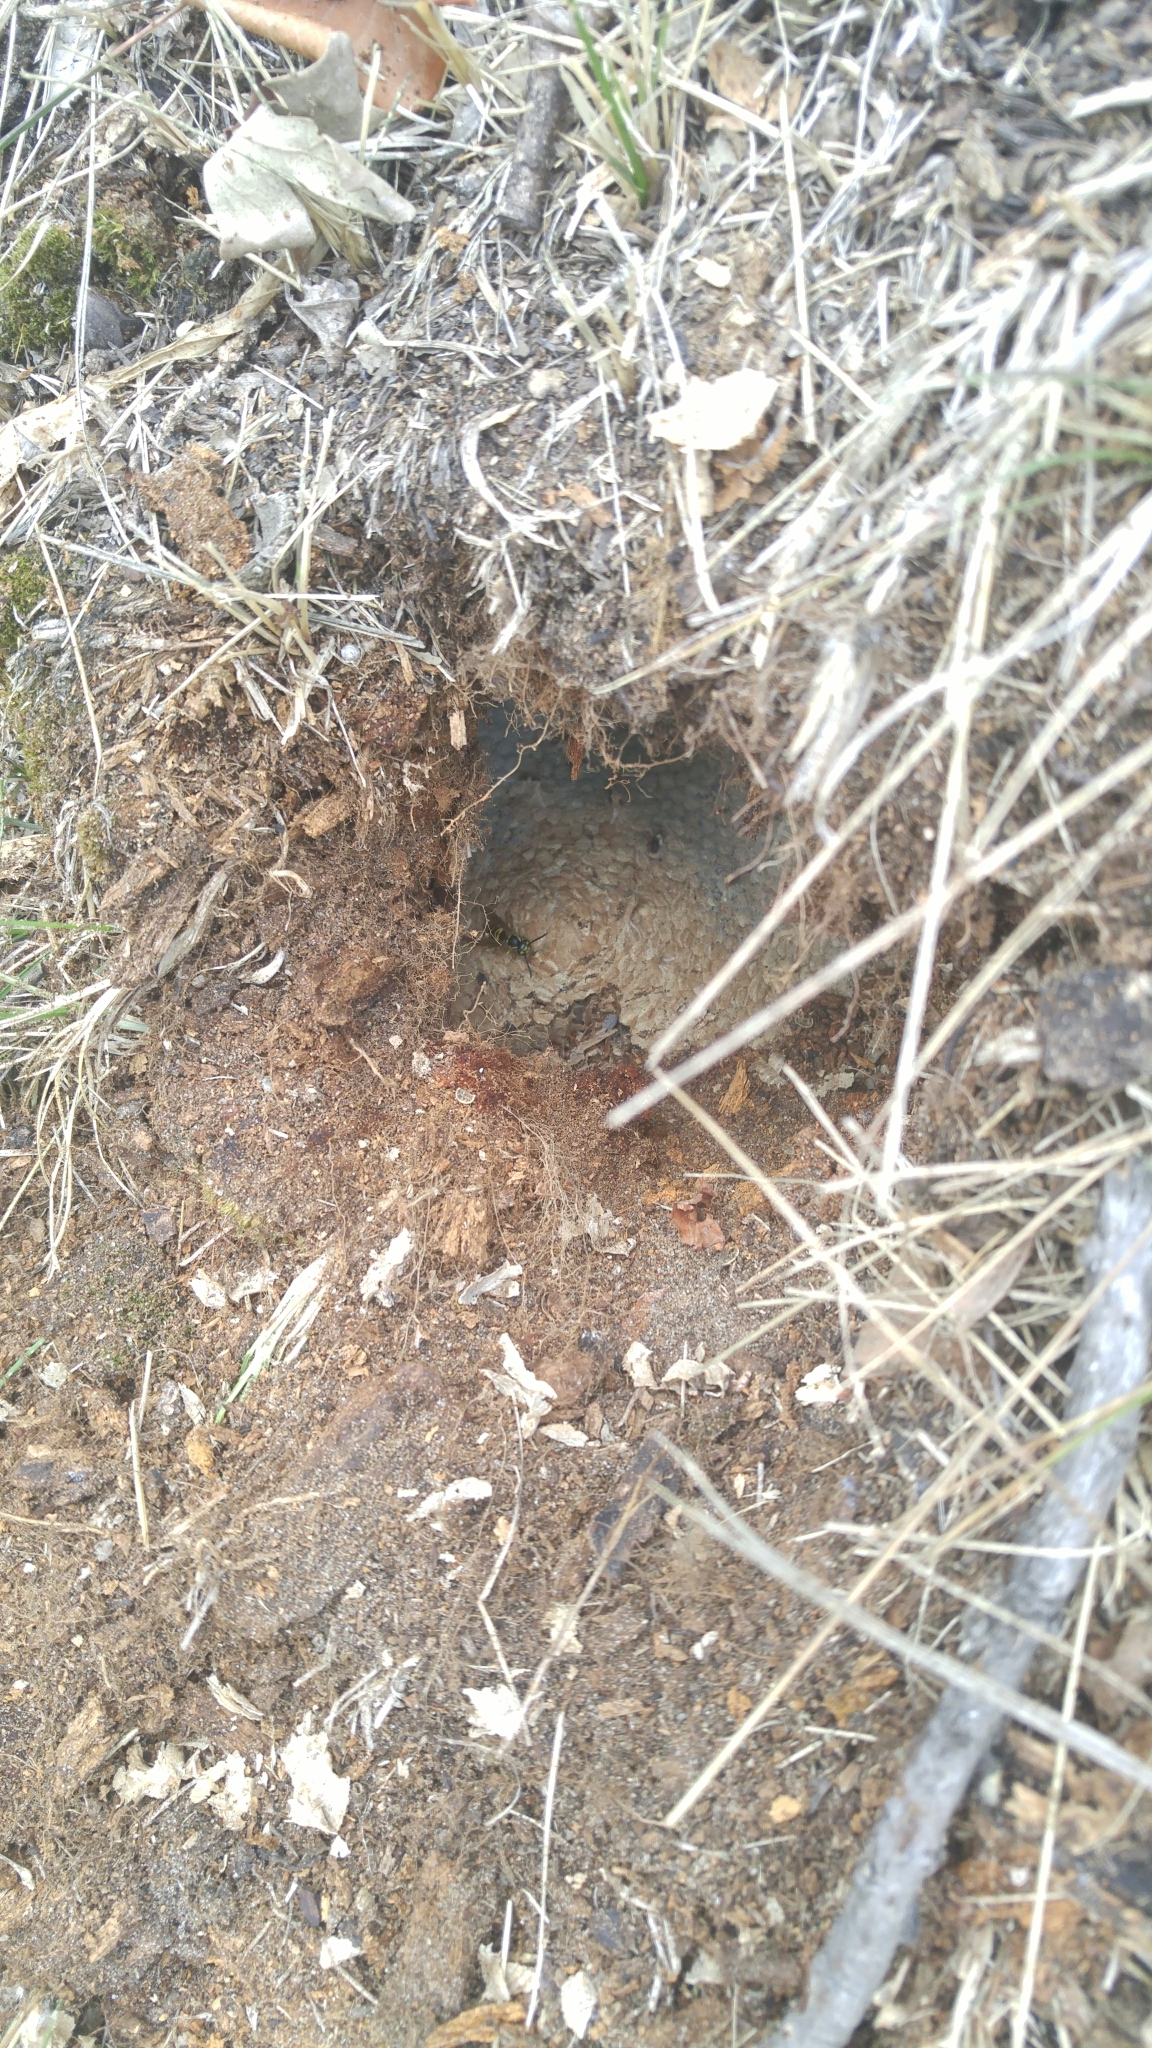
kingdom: Animalia
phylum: Arthropoda
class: Insecta
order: Hymenoptera
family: Vespidae
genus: Vespula
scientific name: Vespula
